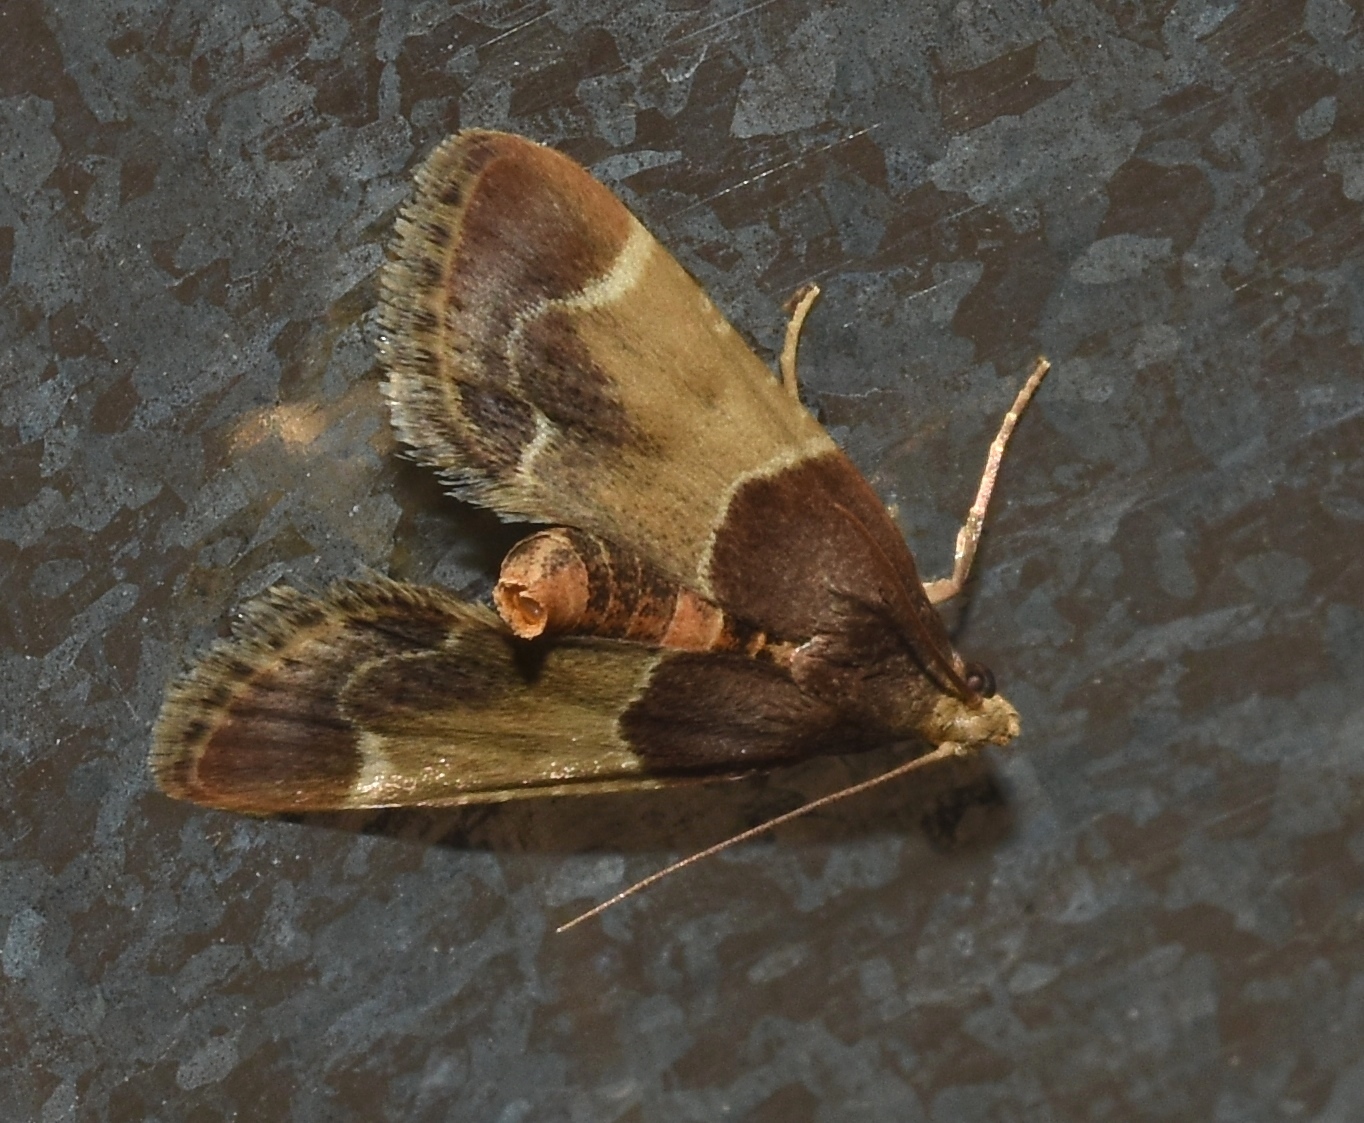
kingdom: Animalia
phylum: Arthropoda
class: Insecta
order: Lepidoptera
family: Pyralidae
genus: Pyralis
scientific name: Pyralis farinalis
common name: Meal moth
